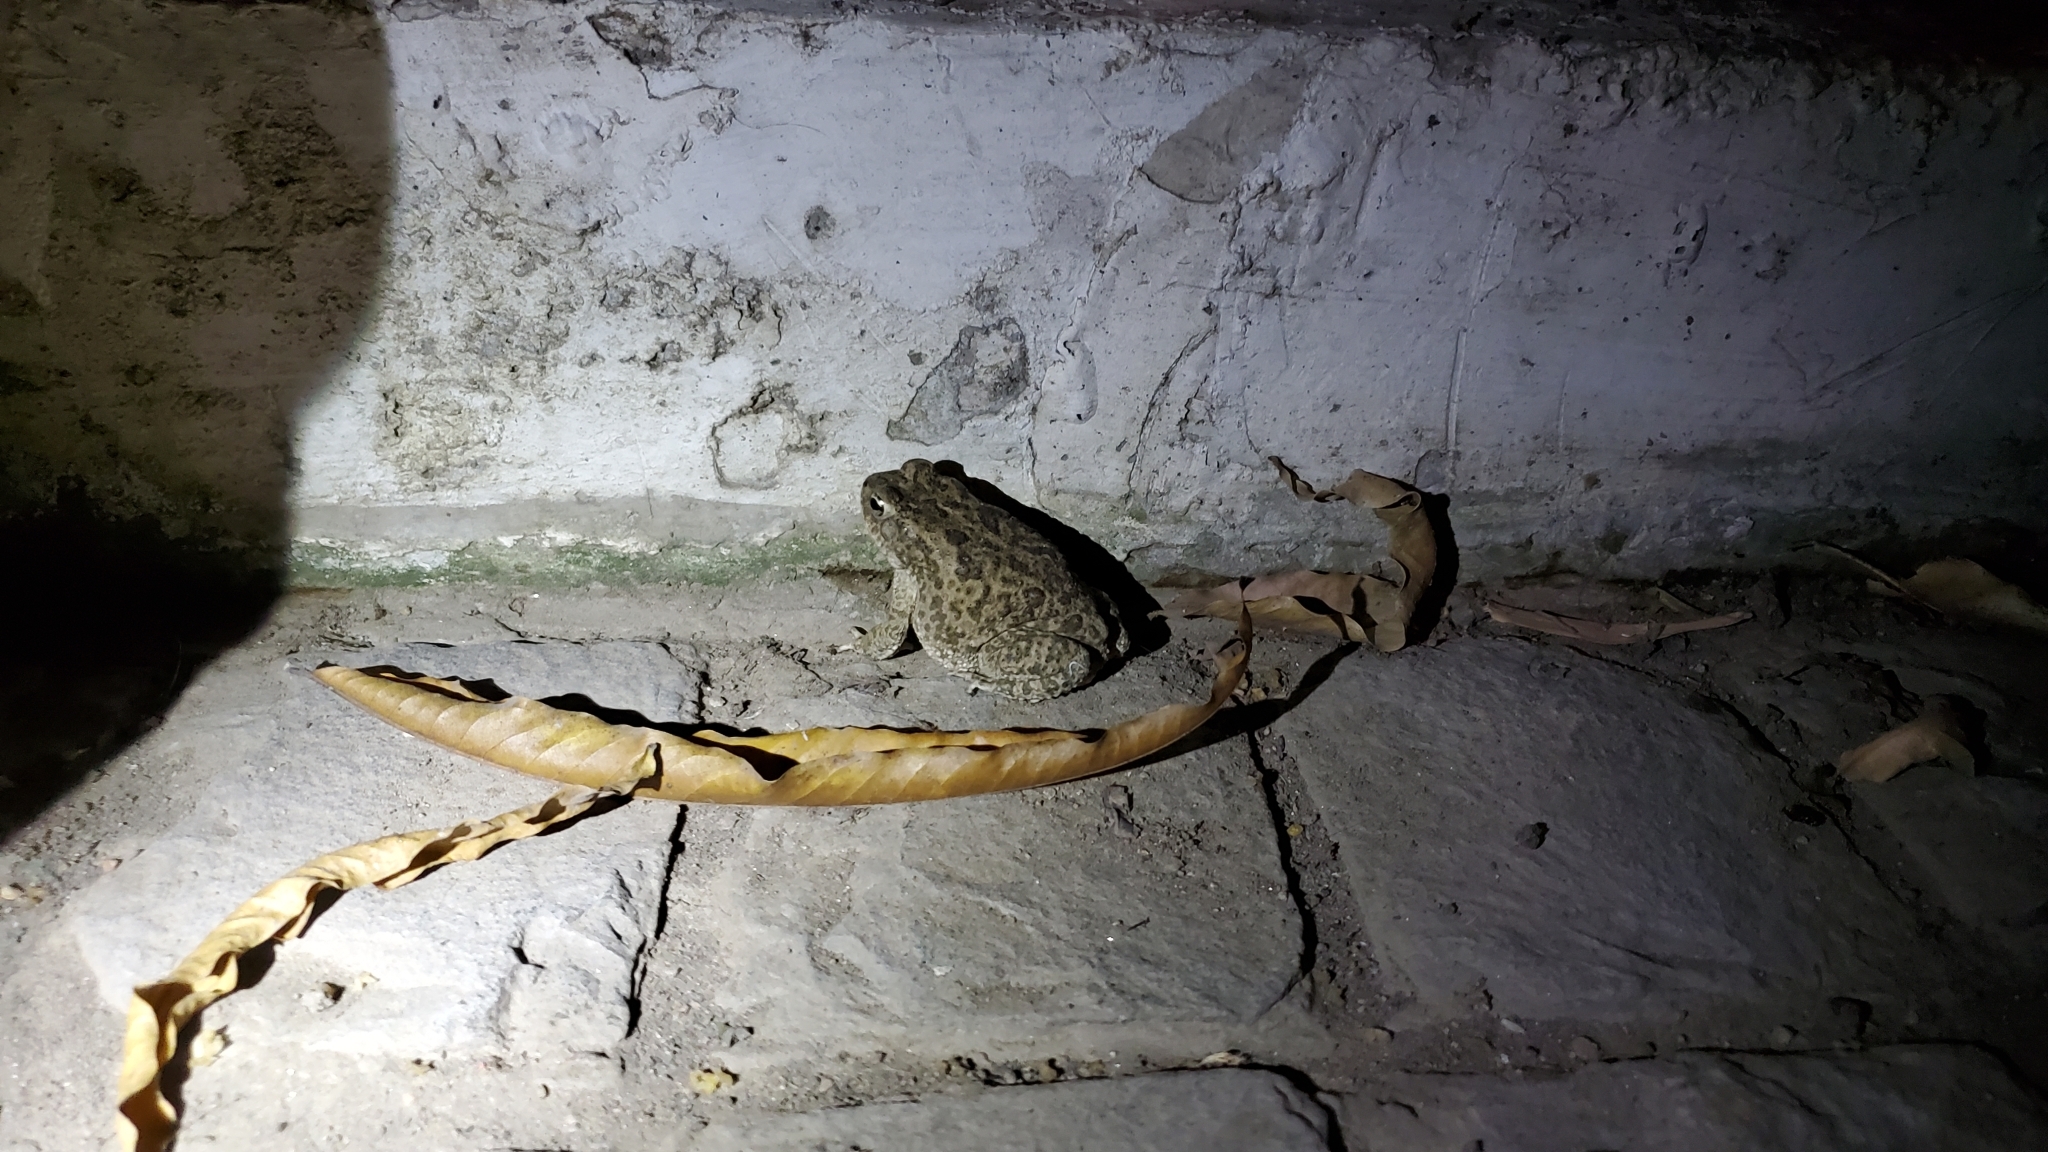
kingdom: Animalia
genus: Firouzophrynus
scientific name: Firouzophrynus
